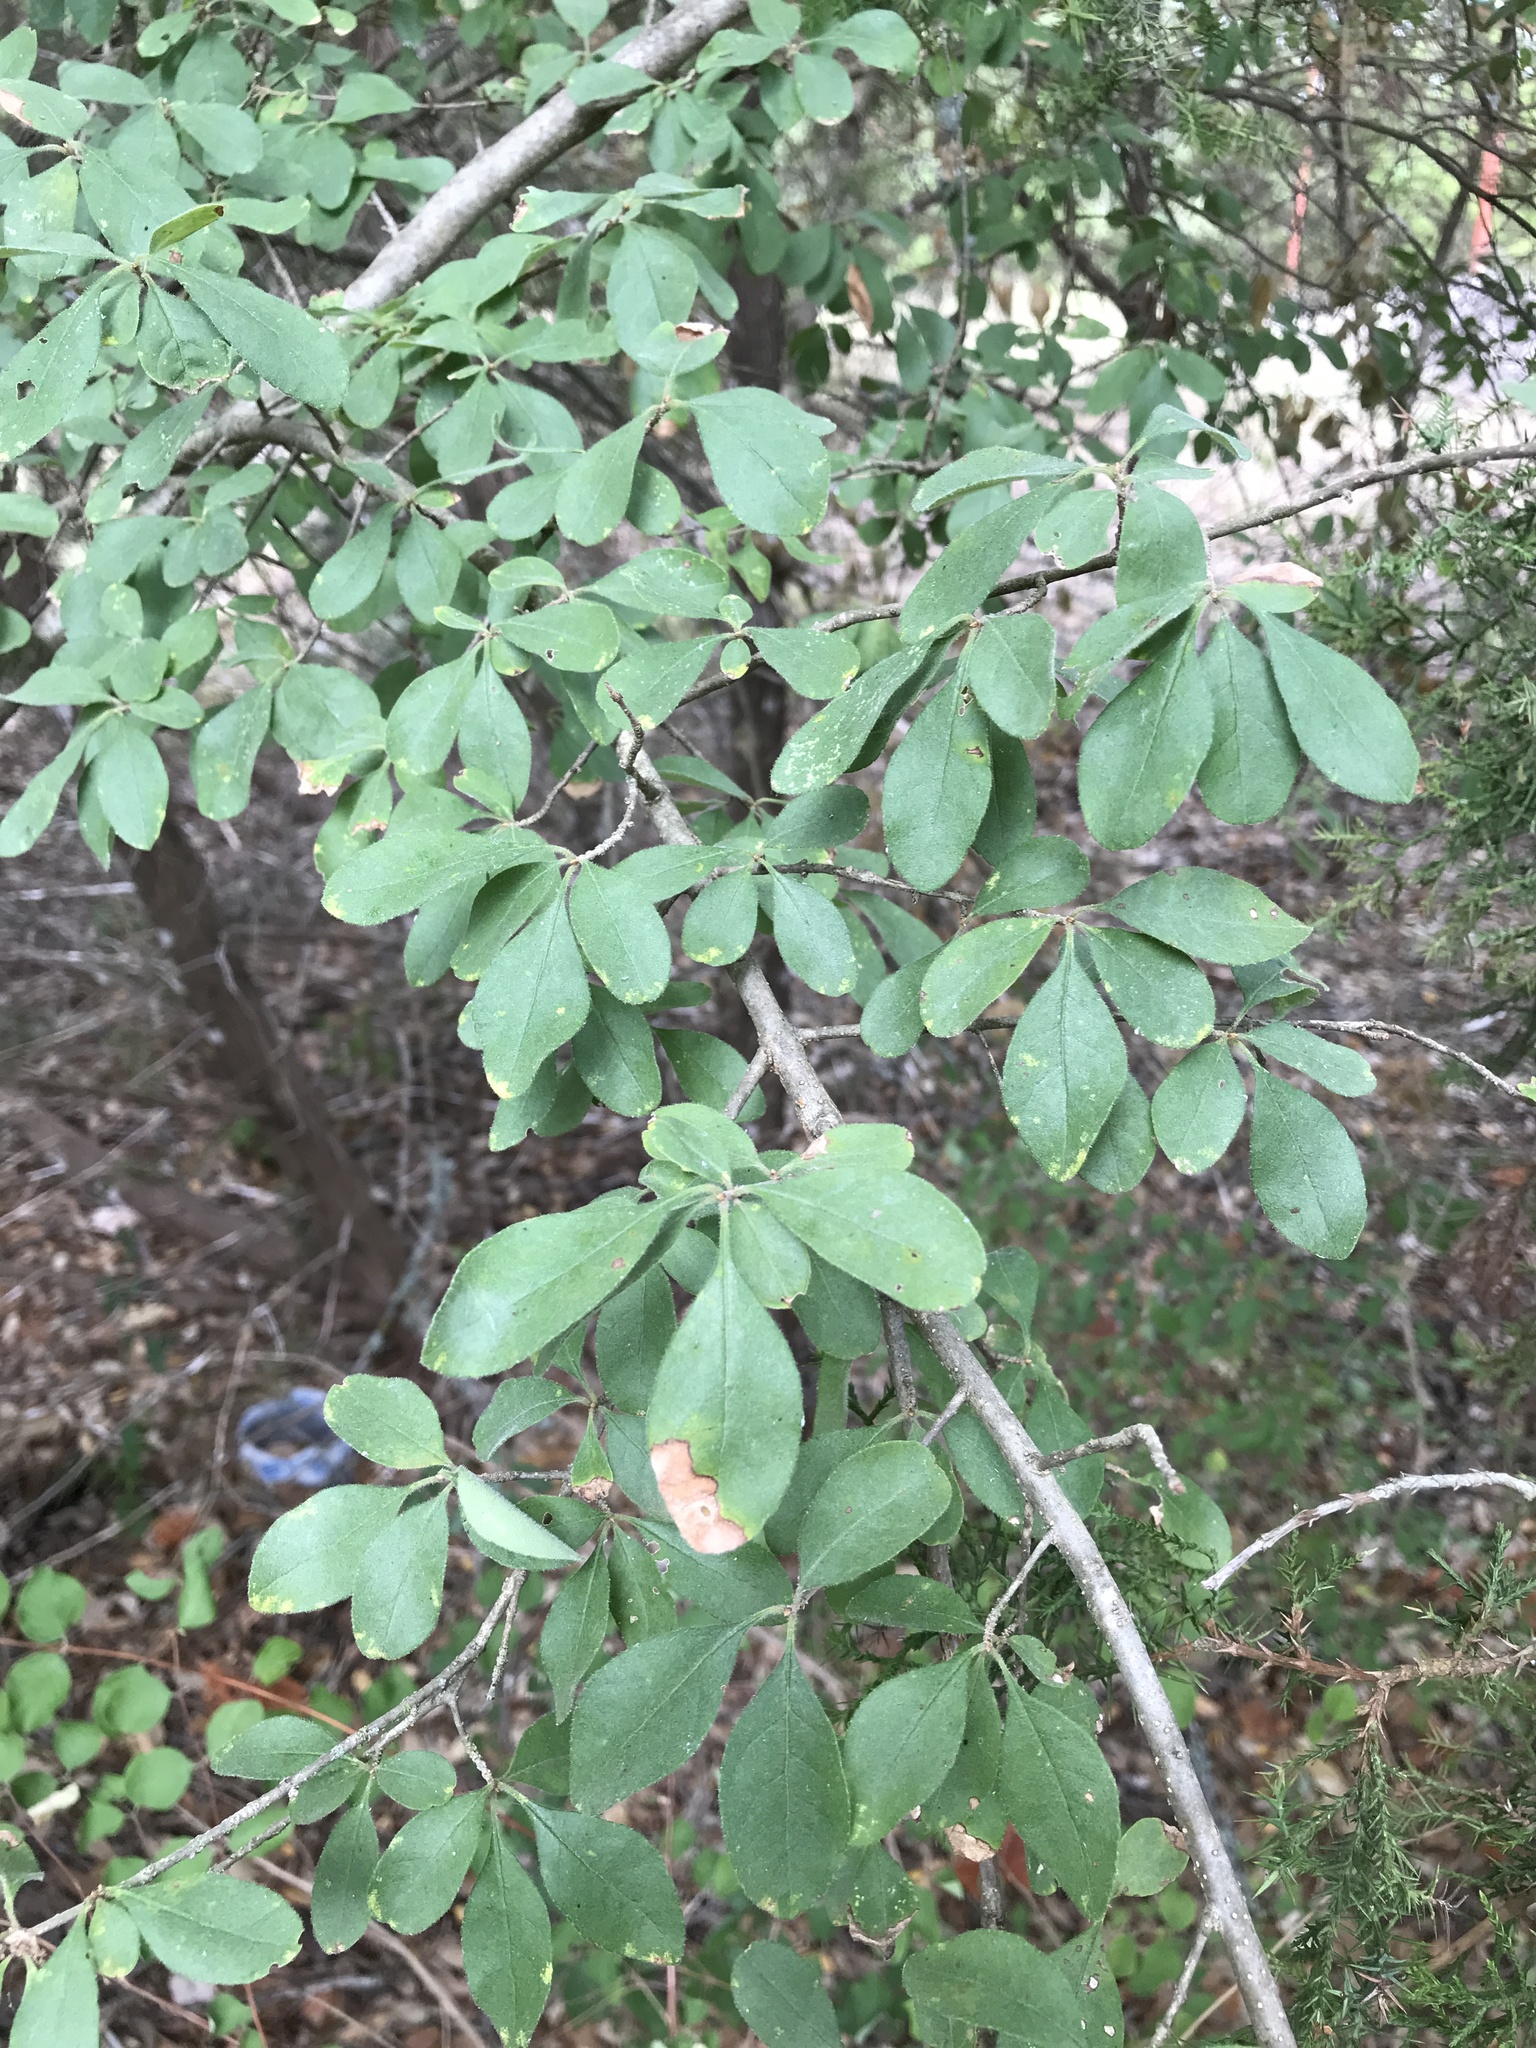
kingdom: Plantae
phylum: Tracheophyta
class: Magnoliopsida
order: Lamiales
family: Oleaceae
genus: Forestiera
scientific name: Forestiera pubescens
